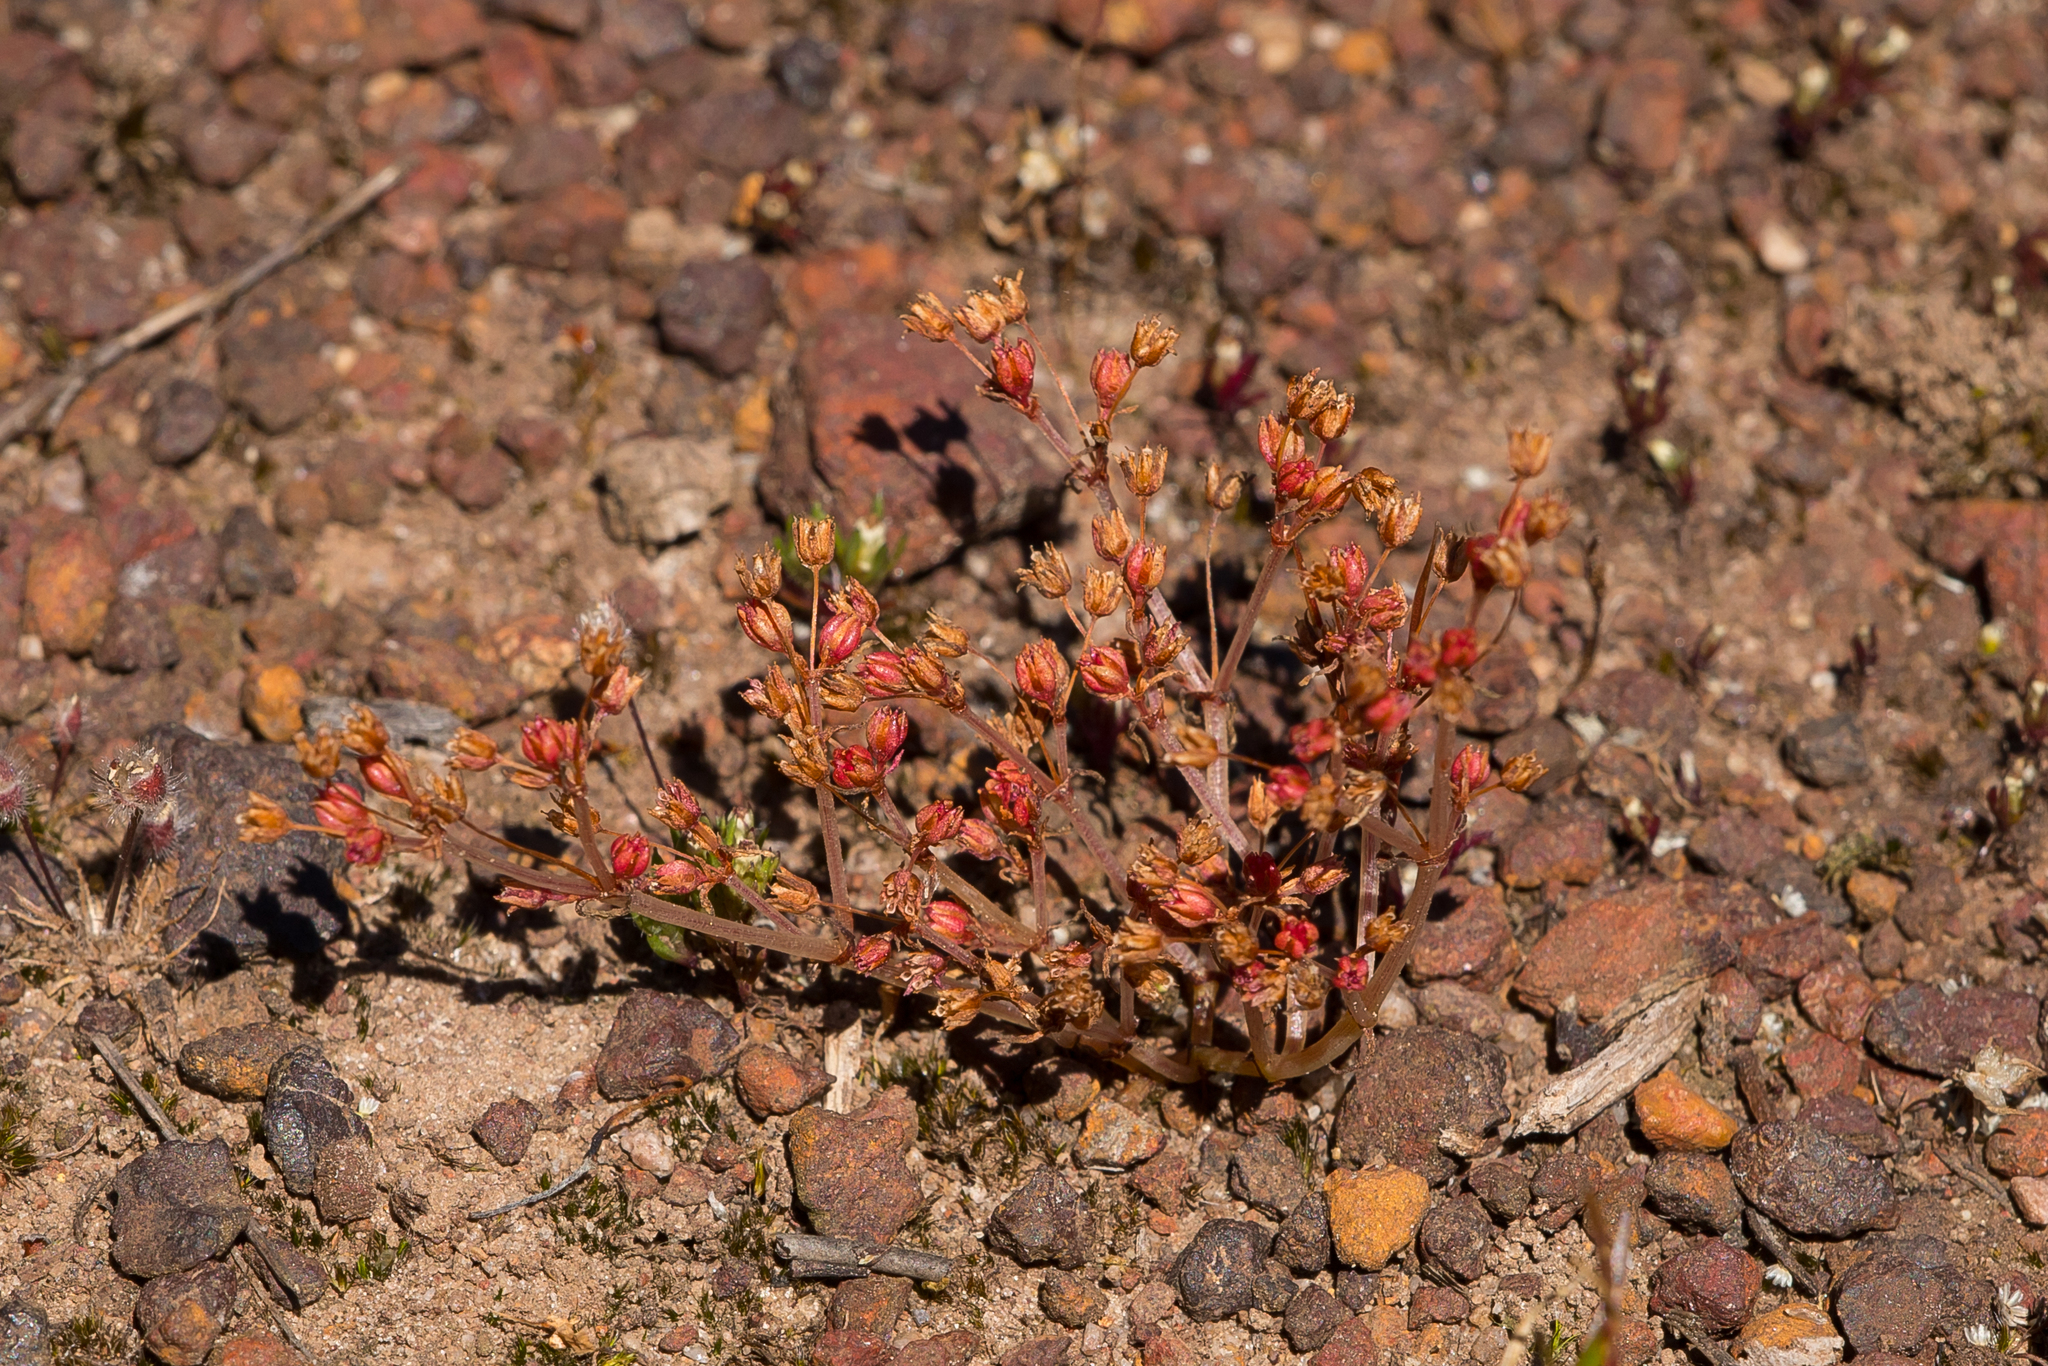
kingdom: Plantae
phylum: Tracheophyta
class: Magnoliopsida
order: Saxifragales
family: Crassulaceae
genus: Crassula
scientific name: Crassula decumbens
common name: Scilly pigmyweed
